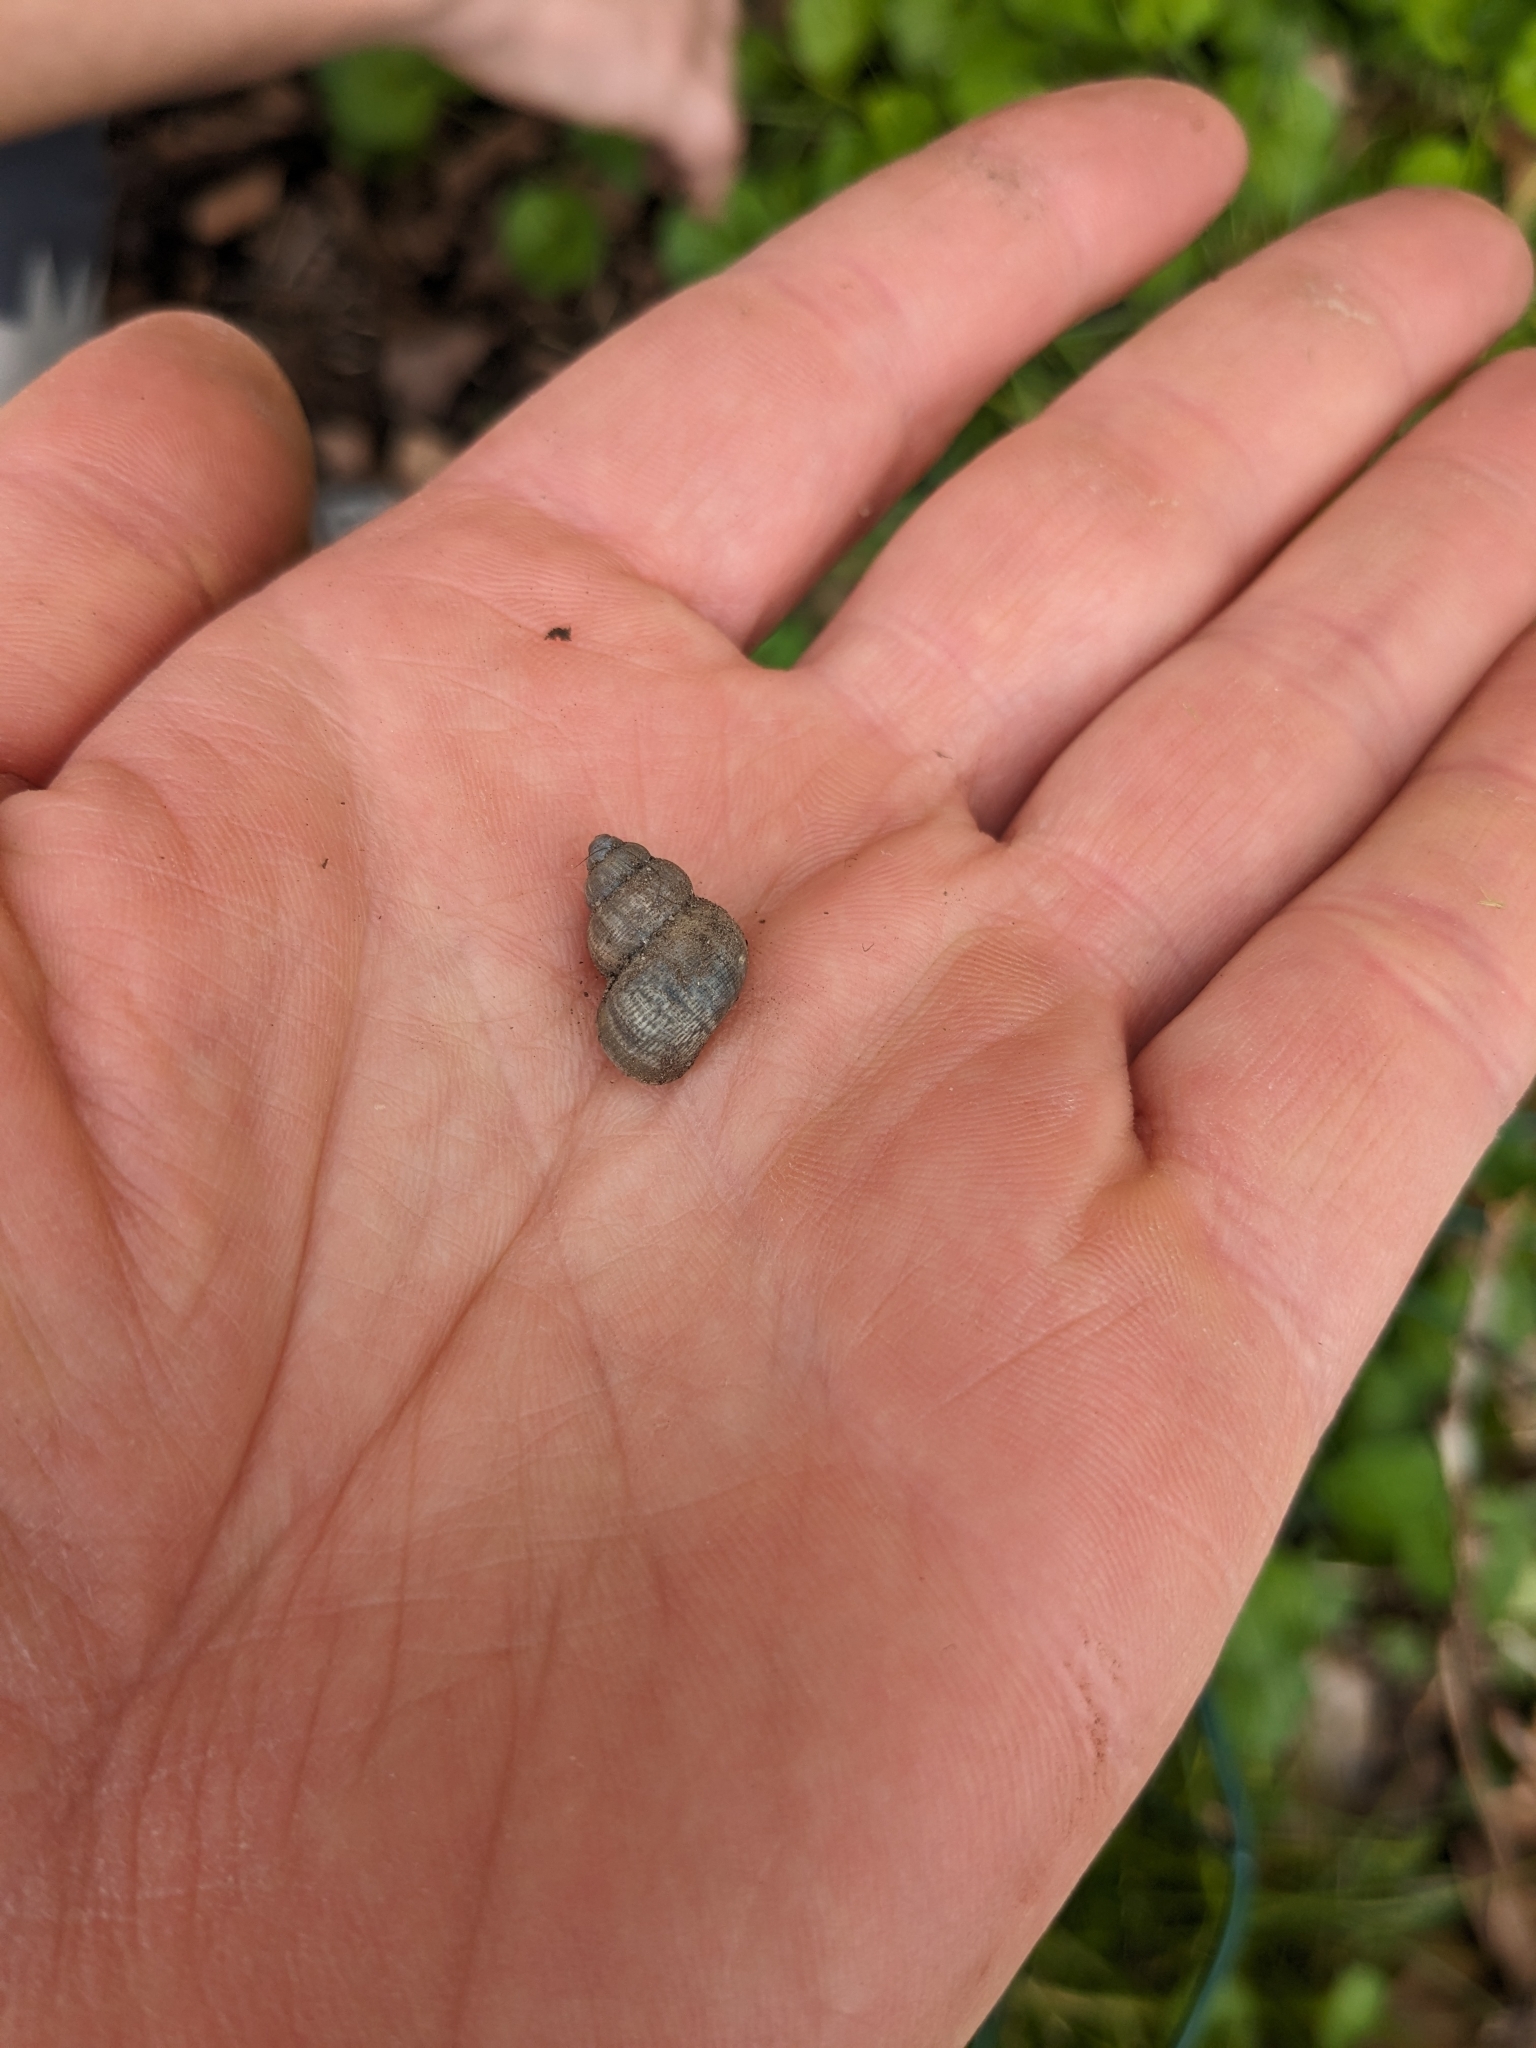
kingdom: Animalia
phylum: Mollusca
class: Gastropoda
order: Littorinimorpha
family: Pomatiidae
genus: Pomatias
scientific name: Pomatias elegans
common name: Red-mouthed snail
